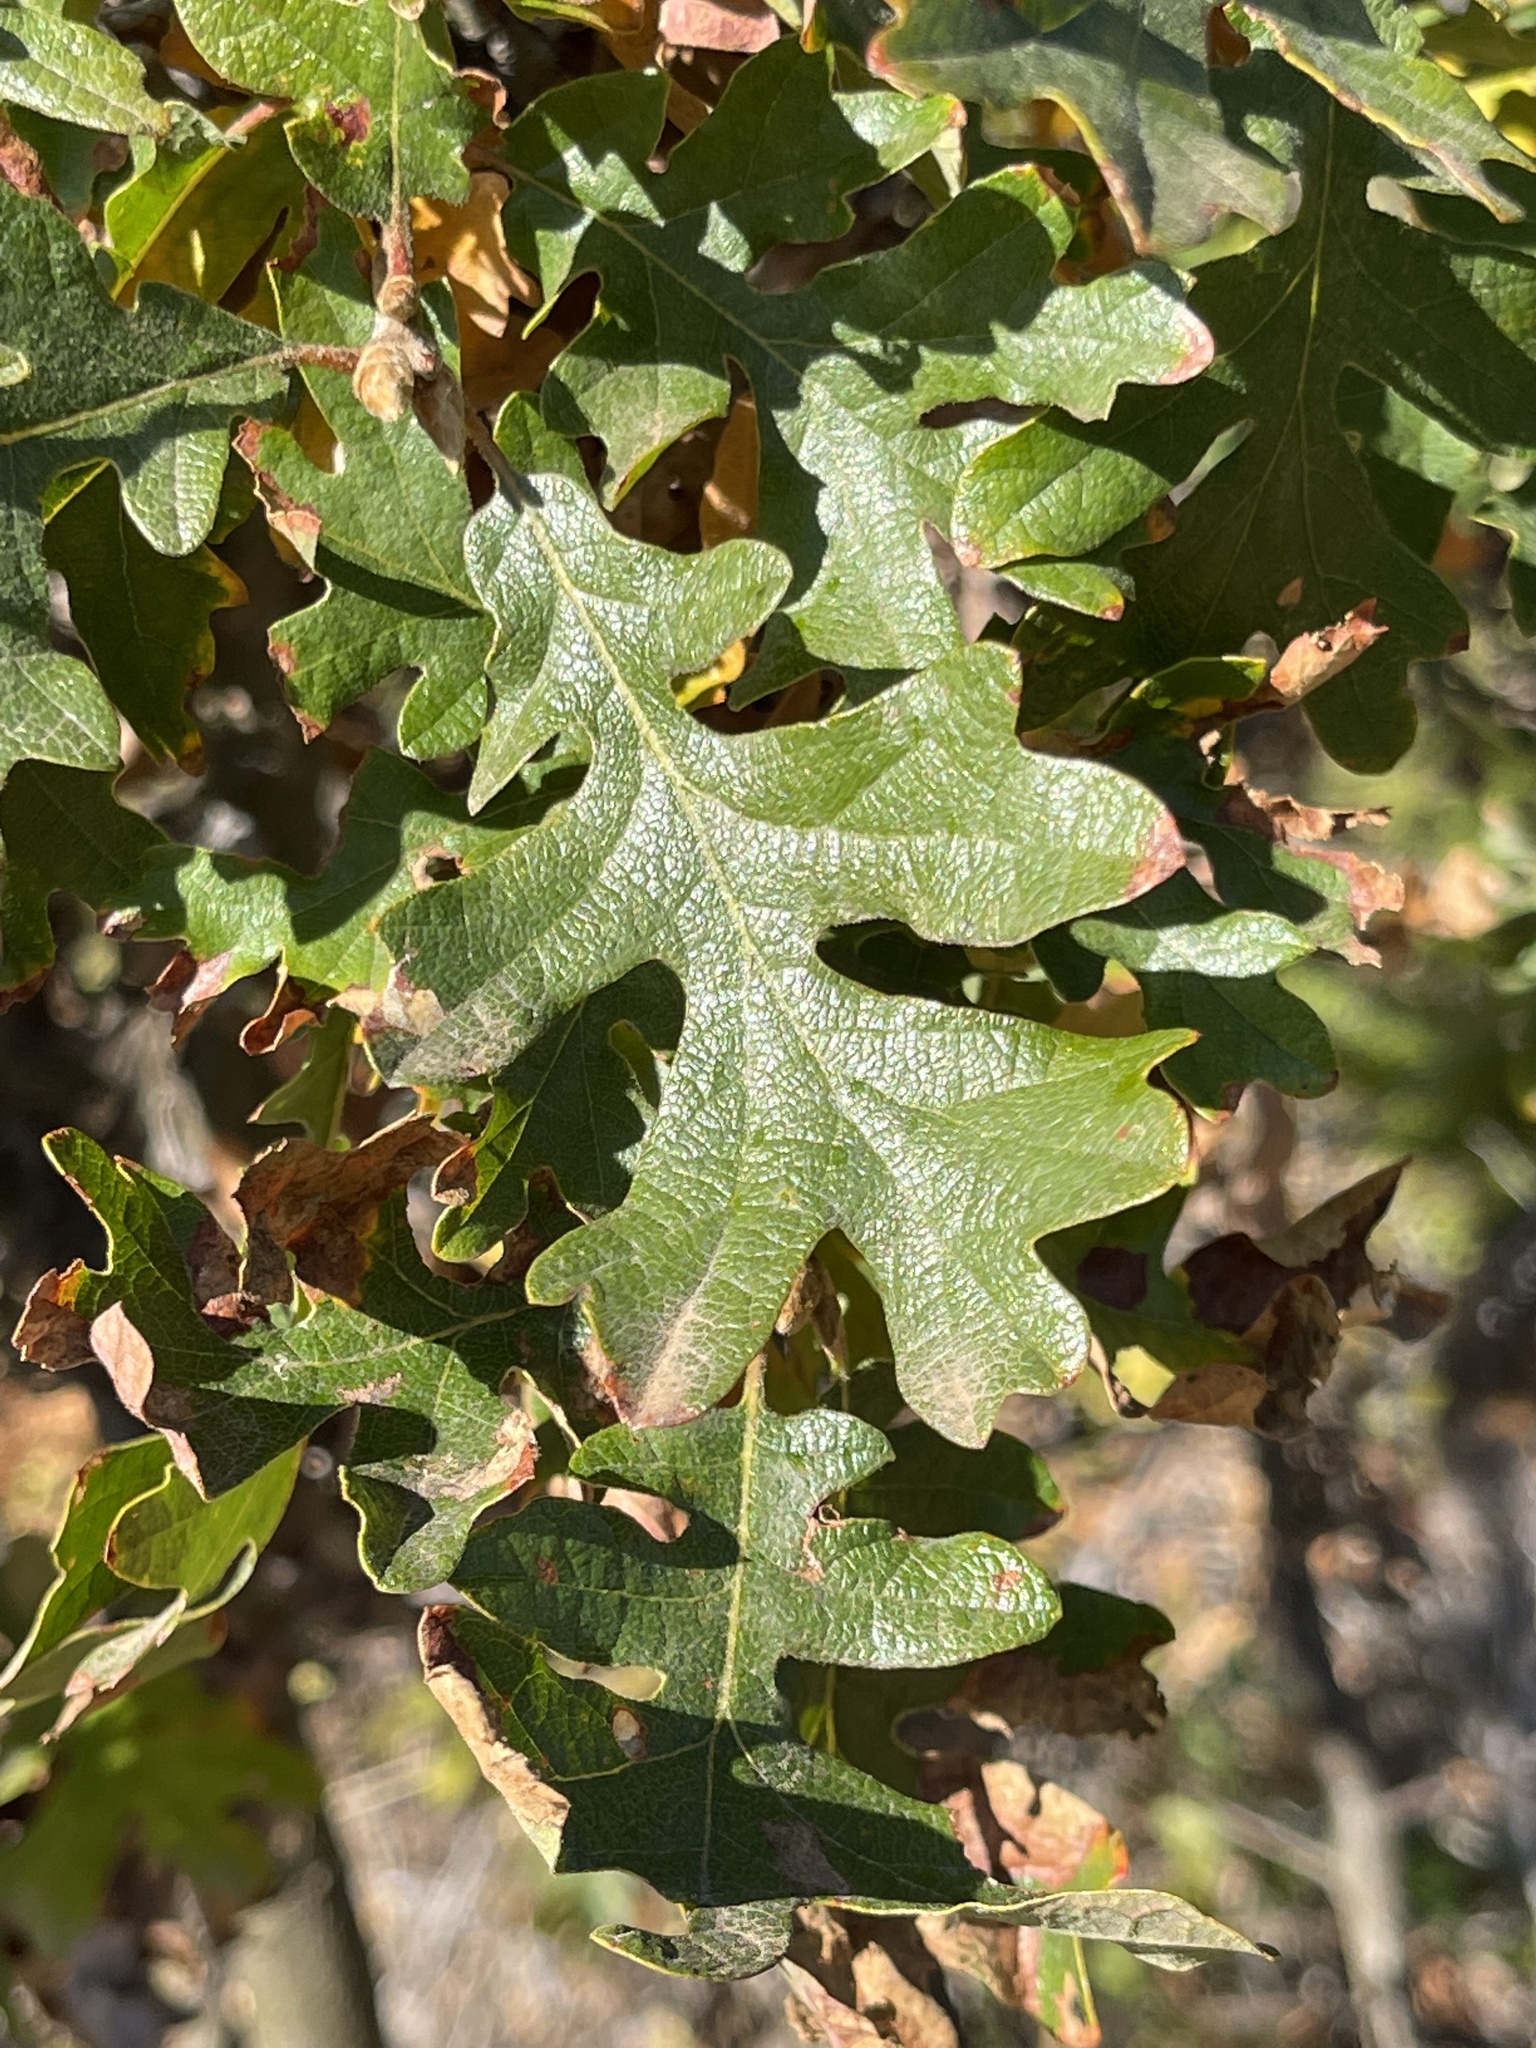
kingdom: Plantae
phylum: Tracheophyta
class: Magnoliopsida
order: Fagales
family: Fagaceae
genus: Quercus
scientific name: Quercus garryana
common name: Garry oak
